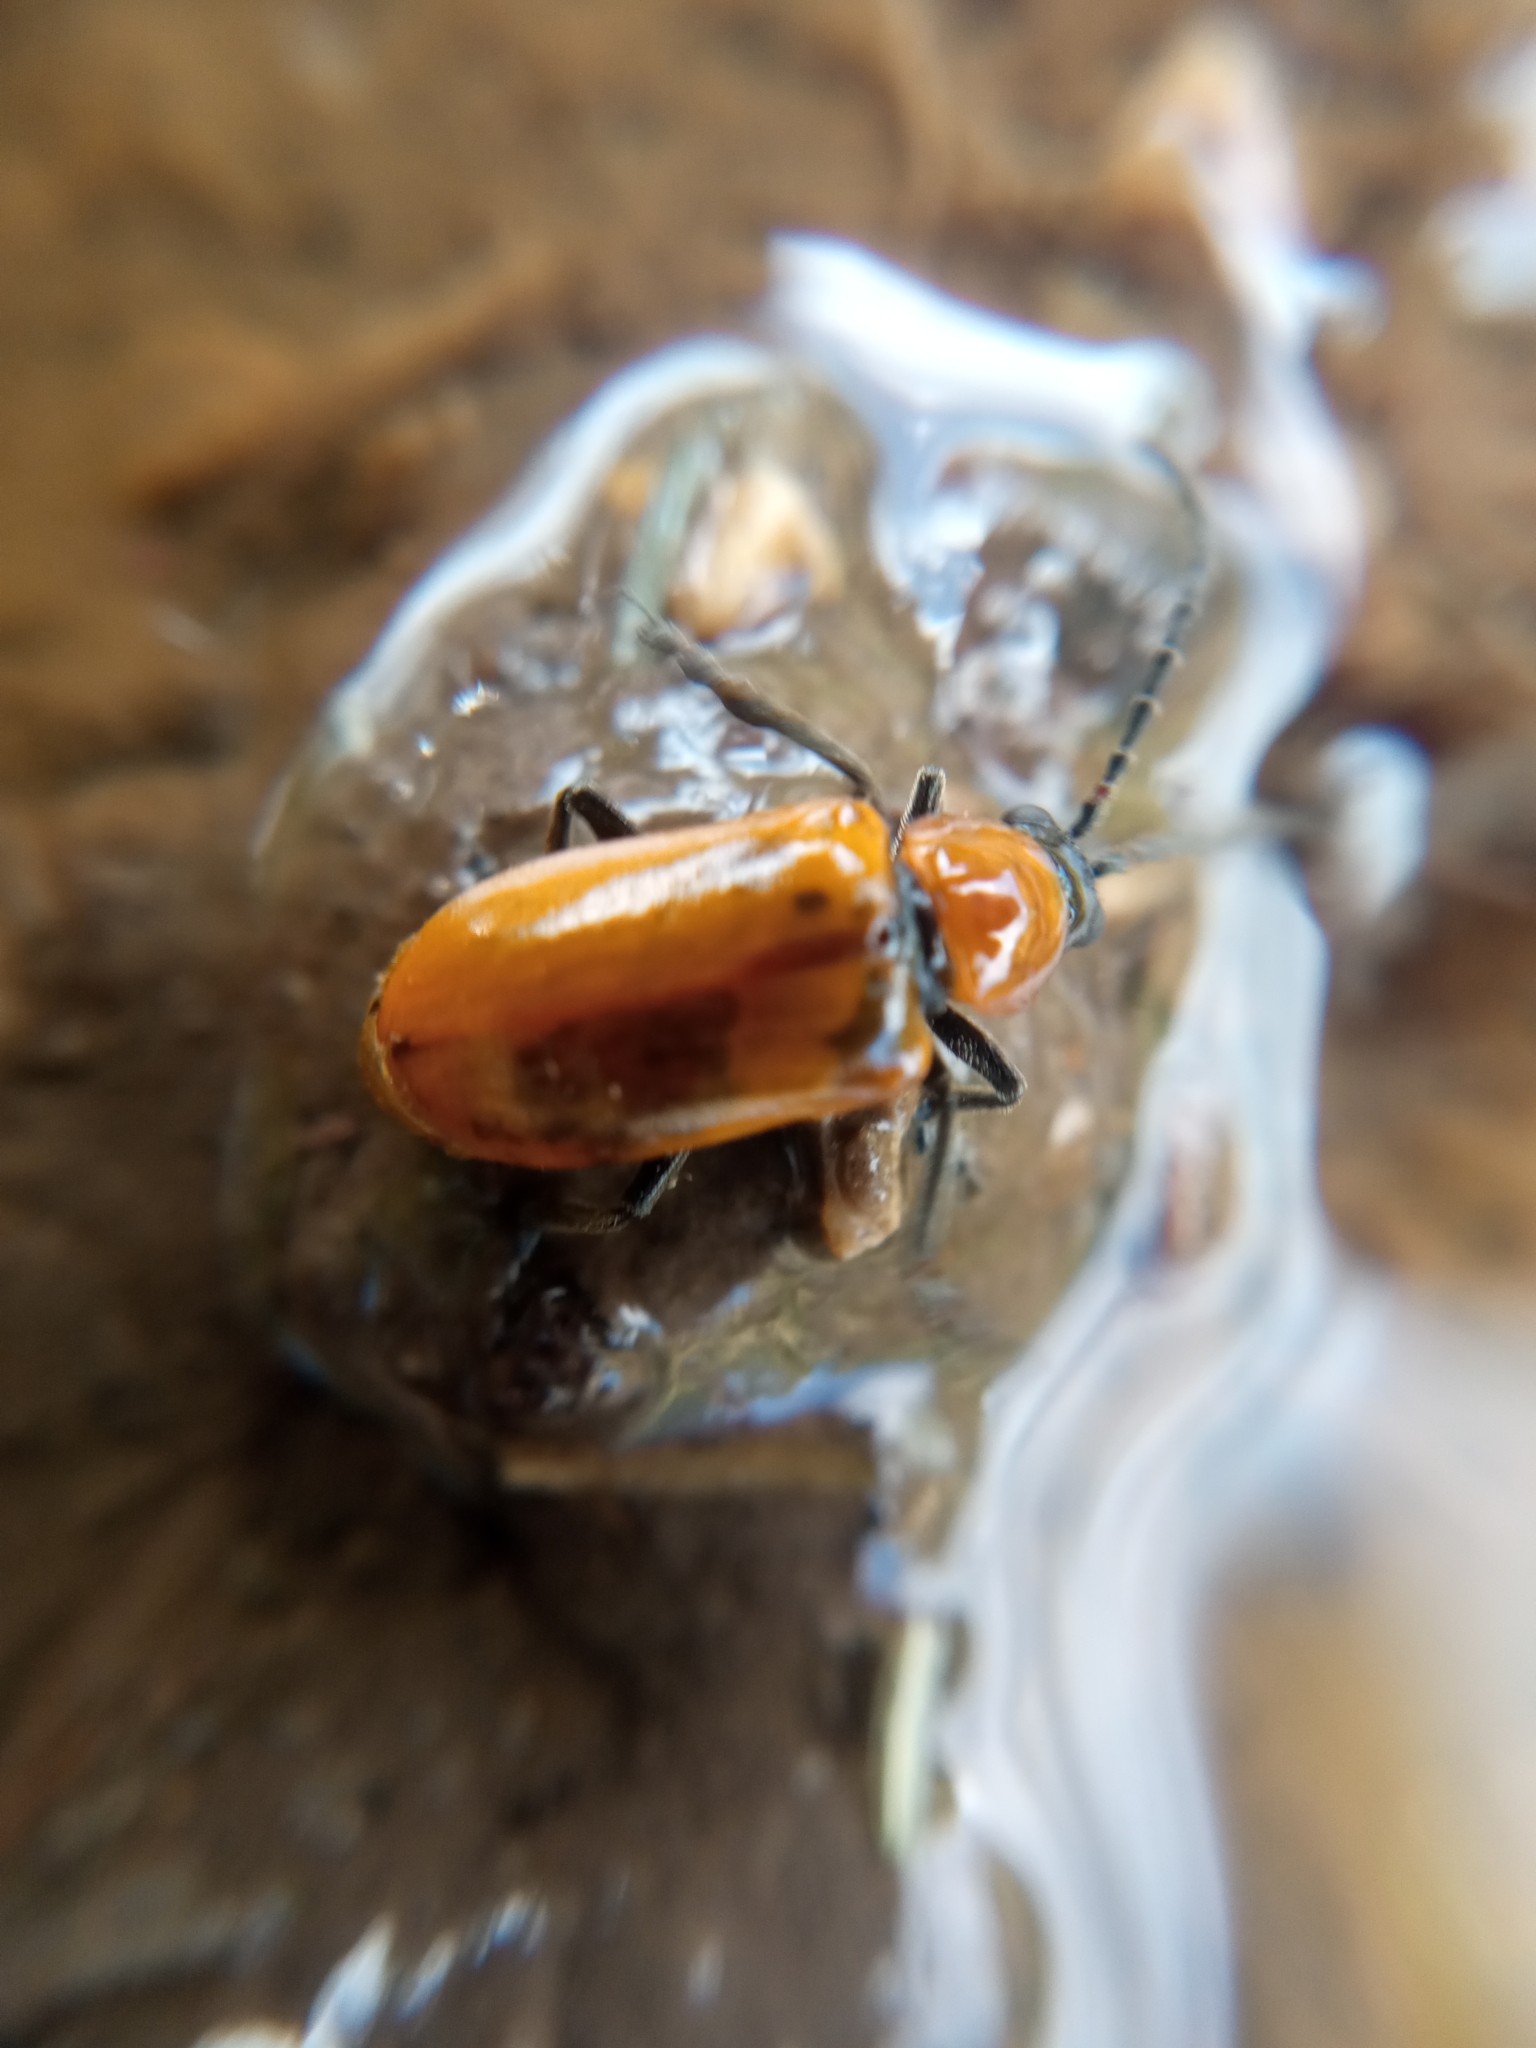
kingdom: Animalia
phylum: Arthropoda
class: Insecta
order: Coleoptera
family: Chrysomelidae
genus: Exosoma
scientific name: Exosoma lusitanicum
